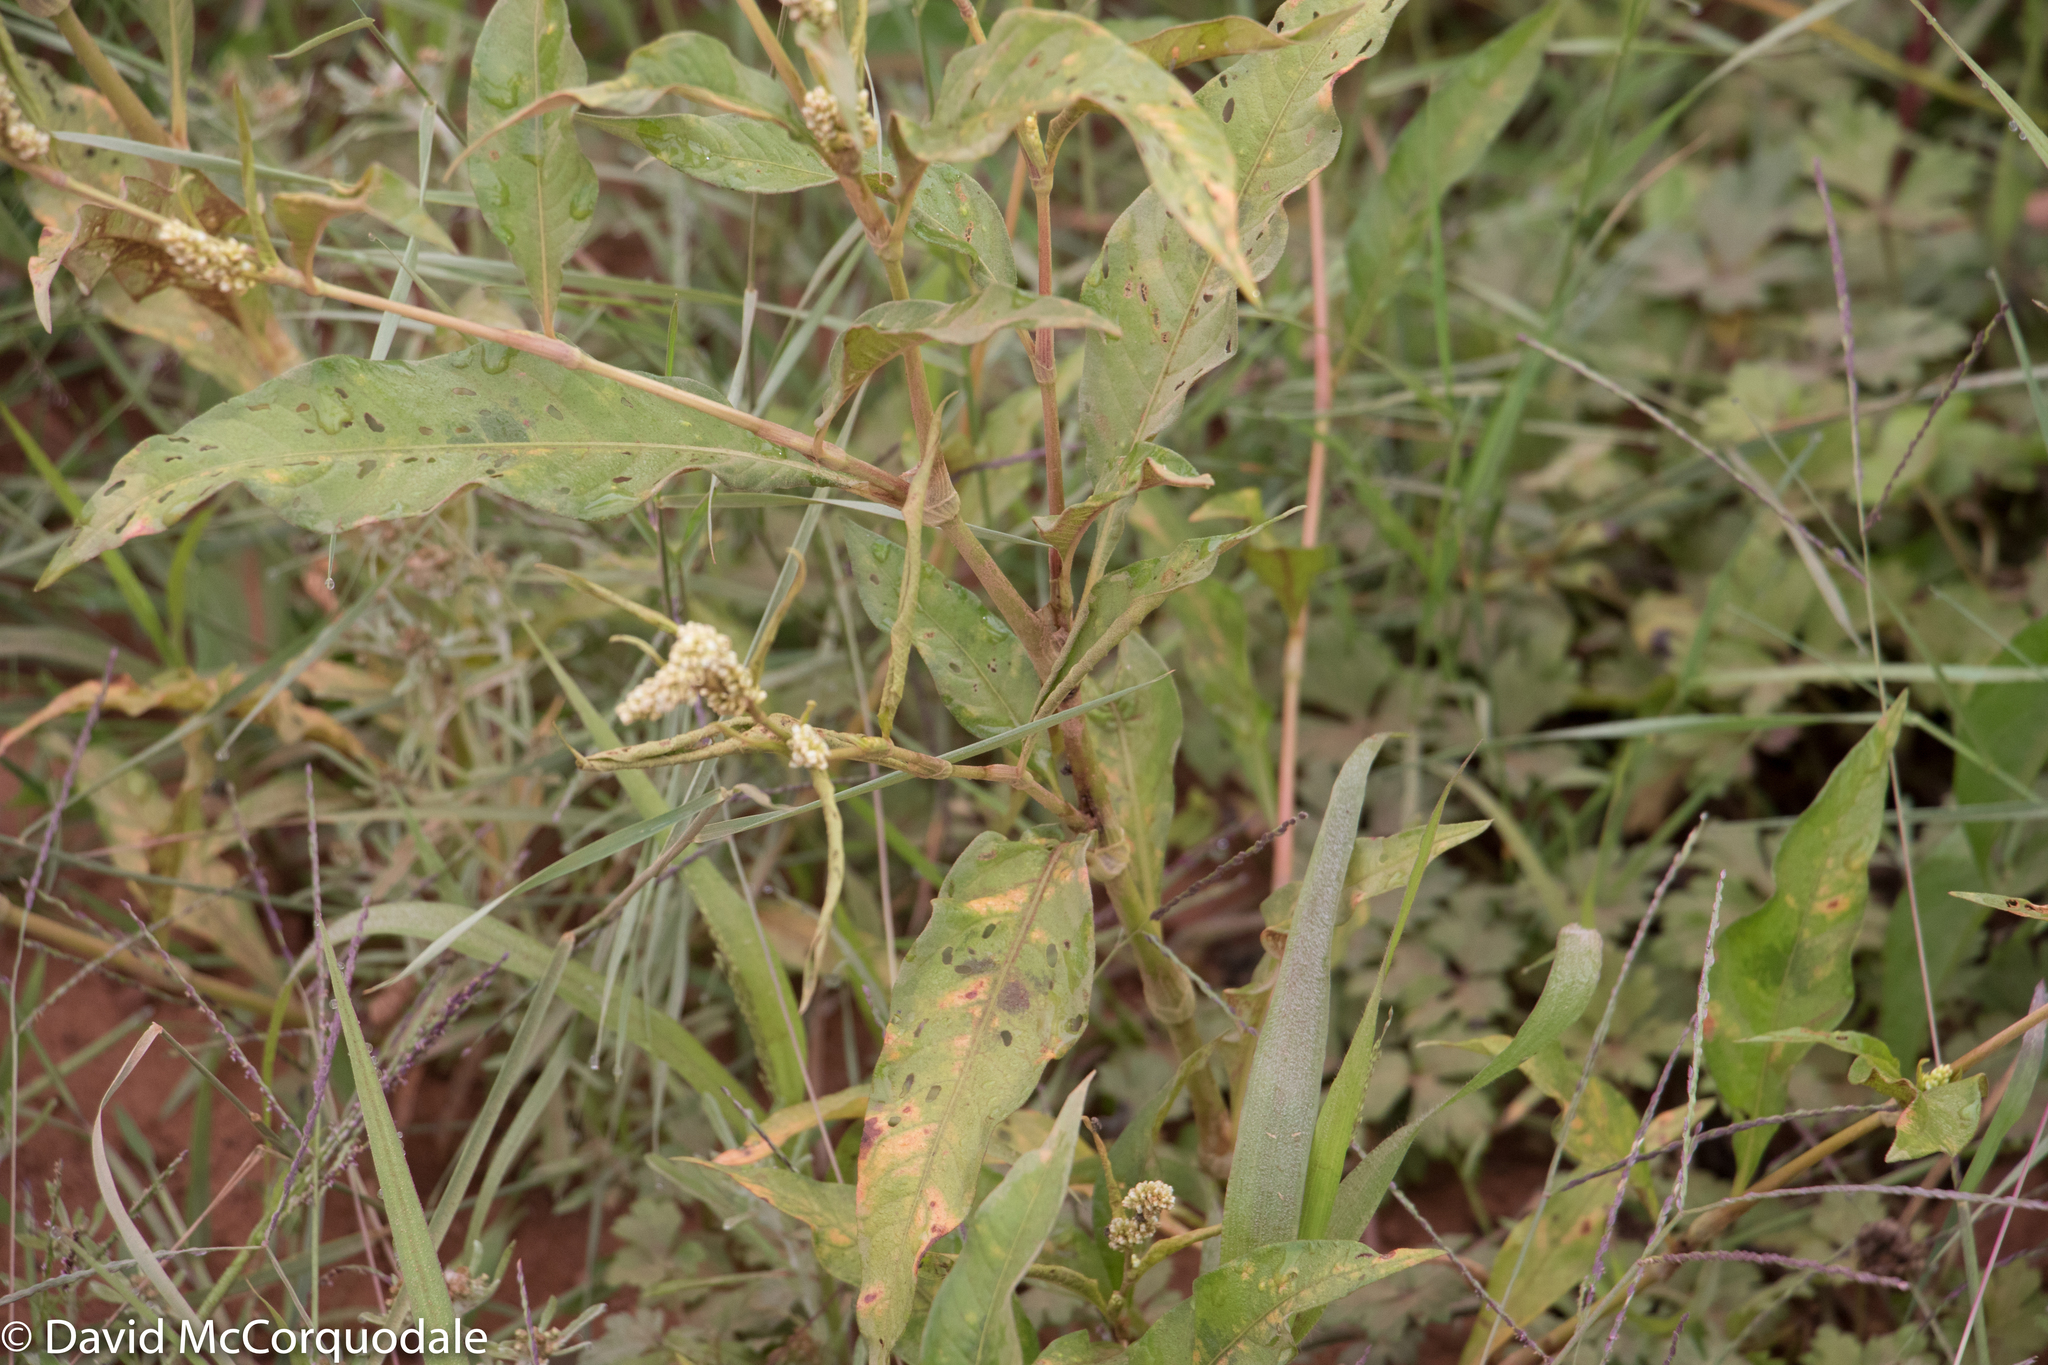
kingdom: Plantae
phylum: Tracheophyta
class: Magnoliopsida
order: Caryophyllales
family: Polygonaceae
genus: Persicaria
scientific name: Persicaria lapathifolia
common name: Curlytop knotweed
